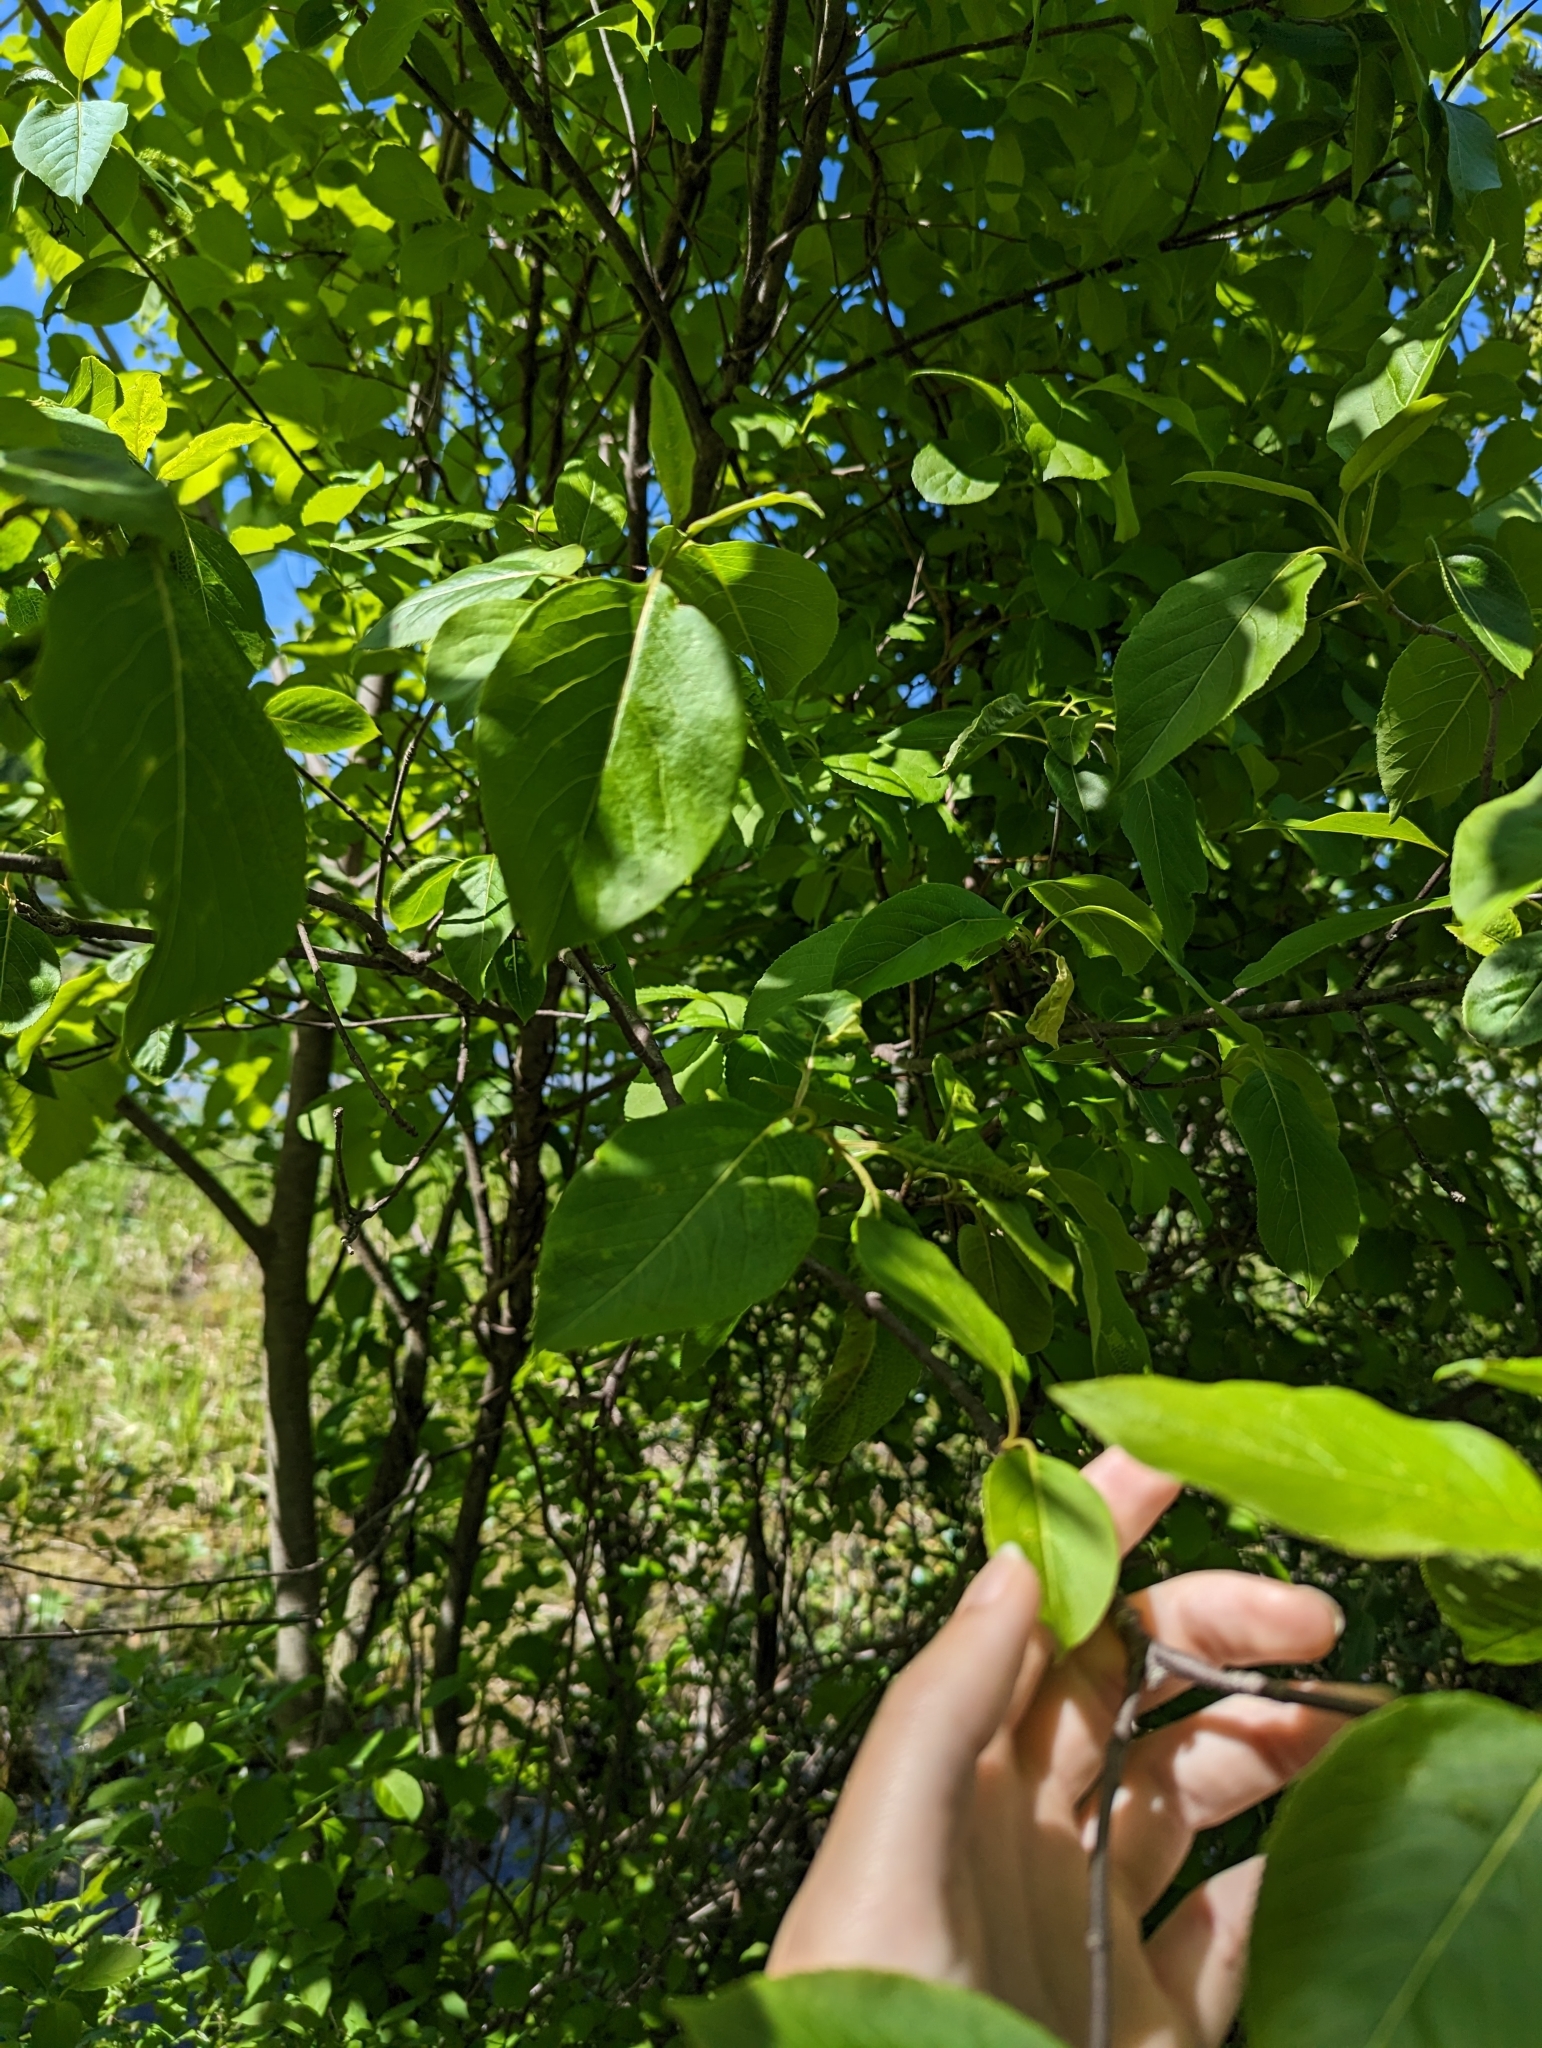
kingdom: Plantae
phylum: Tracheophyta
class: Magnoliopsida
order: Dipsacales
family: Viburnaceae
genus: Viburnum
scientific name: Viburnum lentago
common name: Black haw
